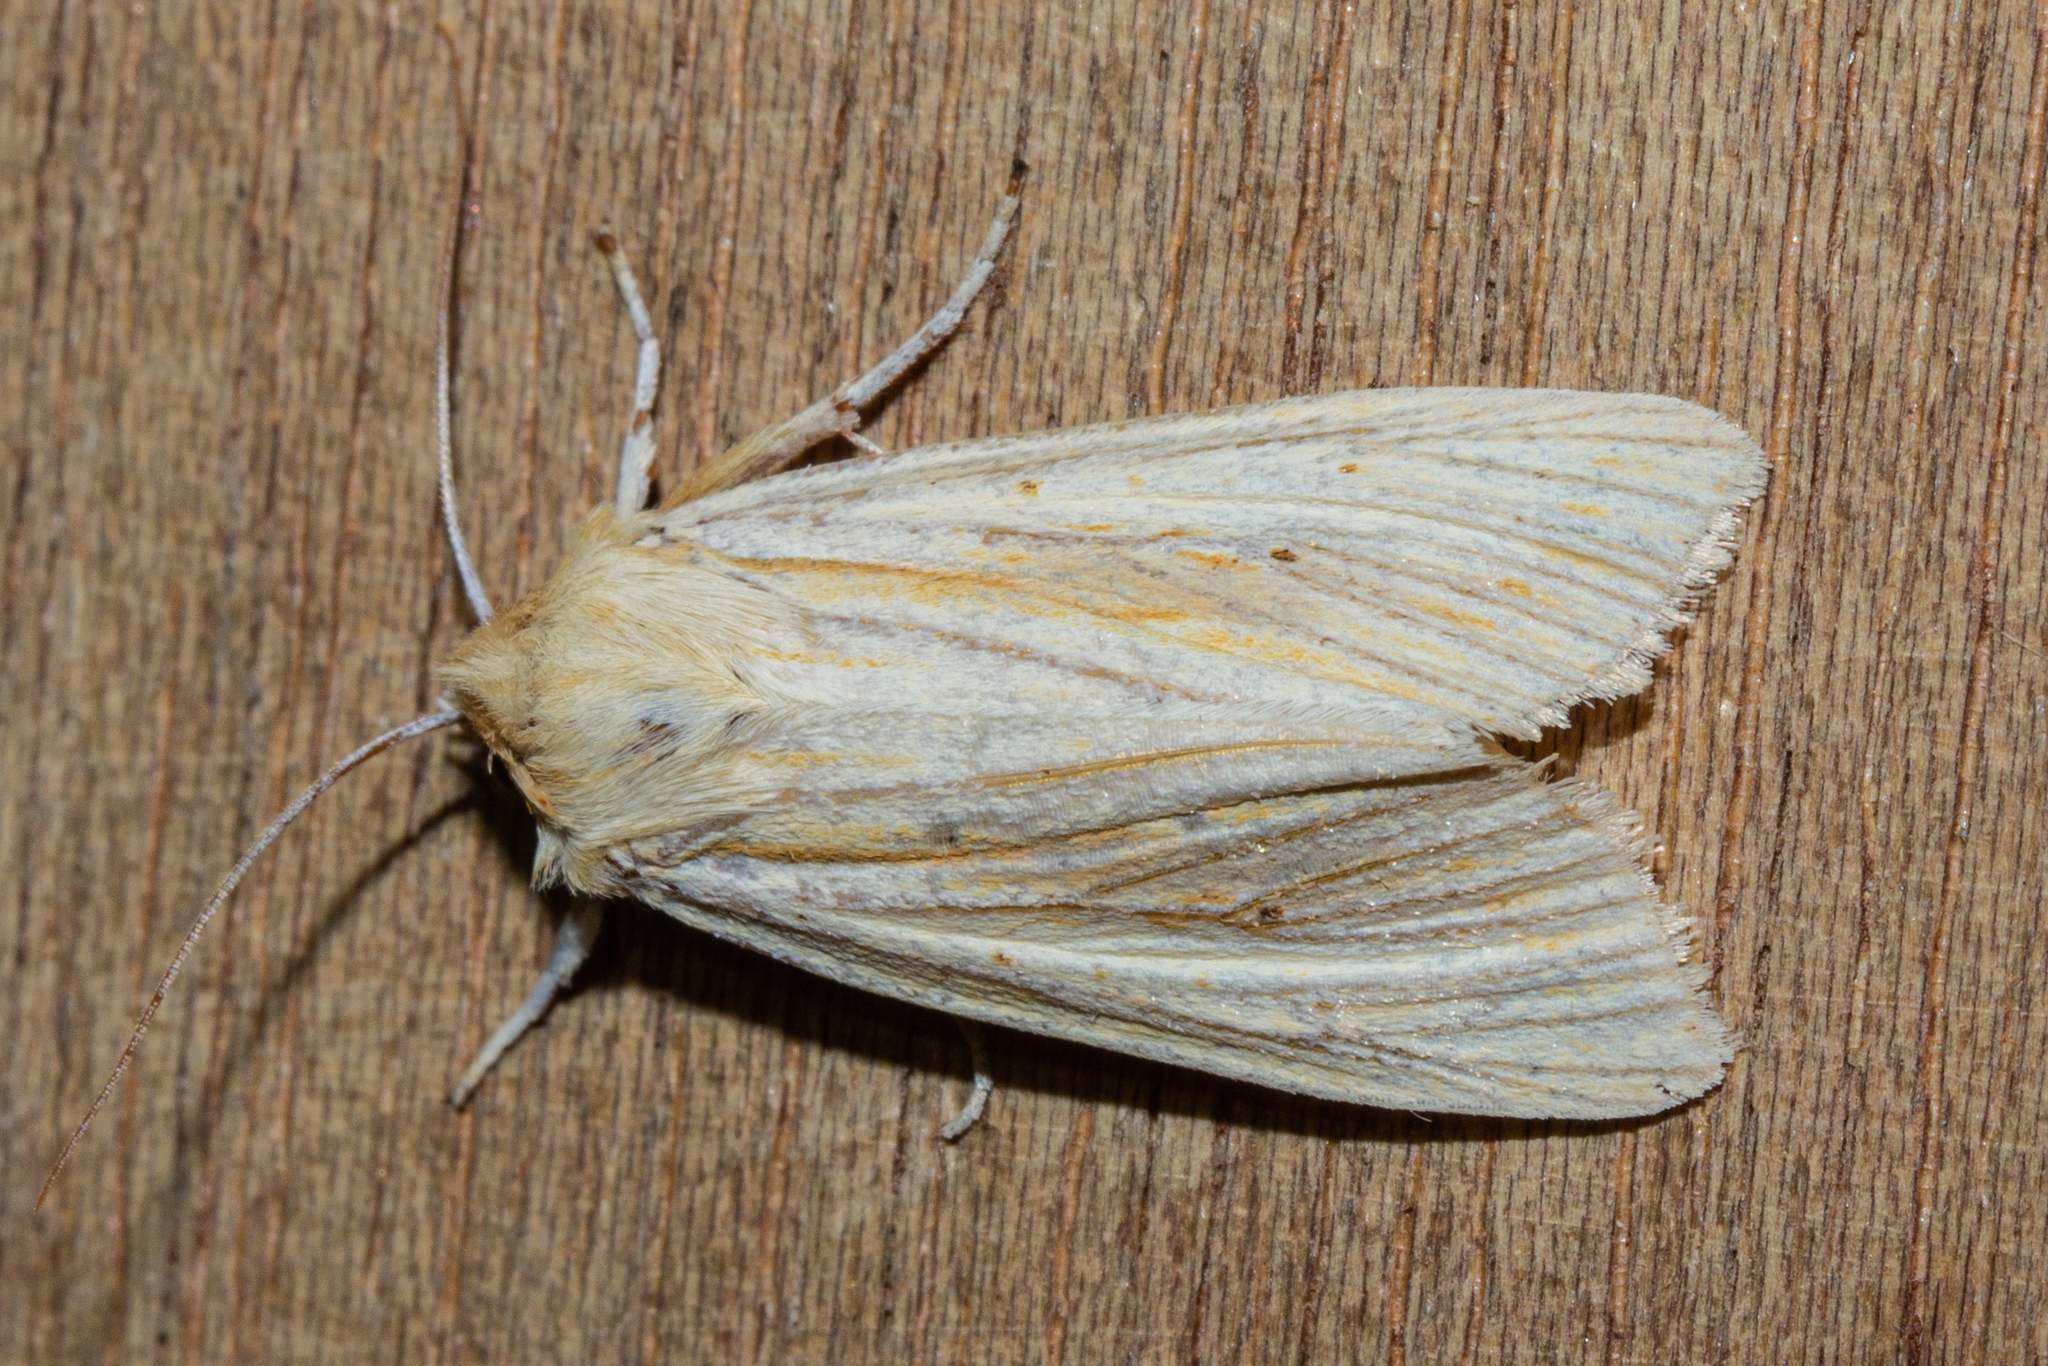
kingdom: Animalia
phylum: Arthropoda
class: Insecta
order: Lepidoptera
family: Noctuidae
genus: Ichneutica
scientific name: Ichneutica semivittata
